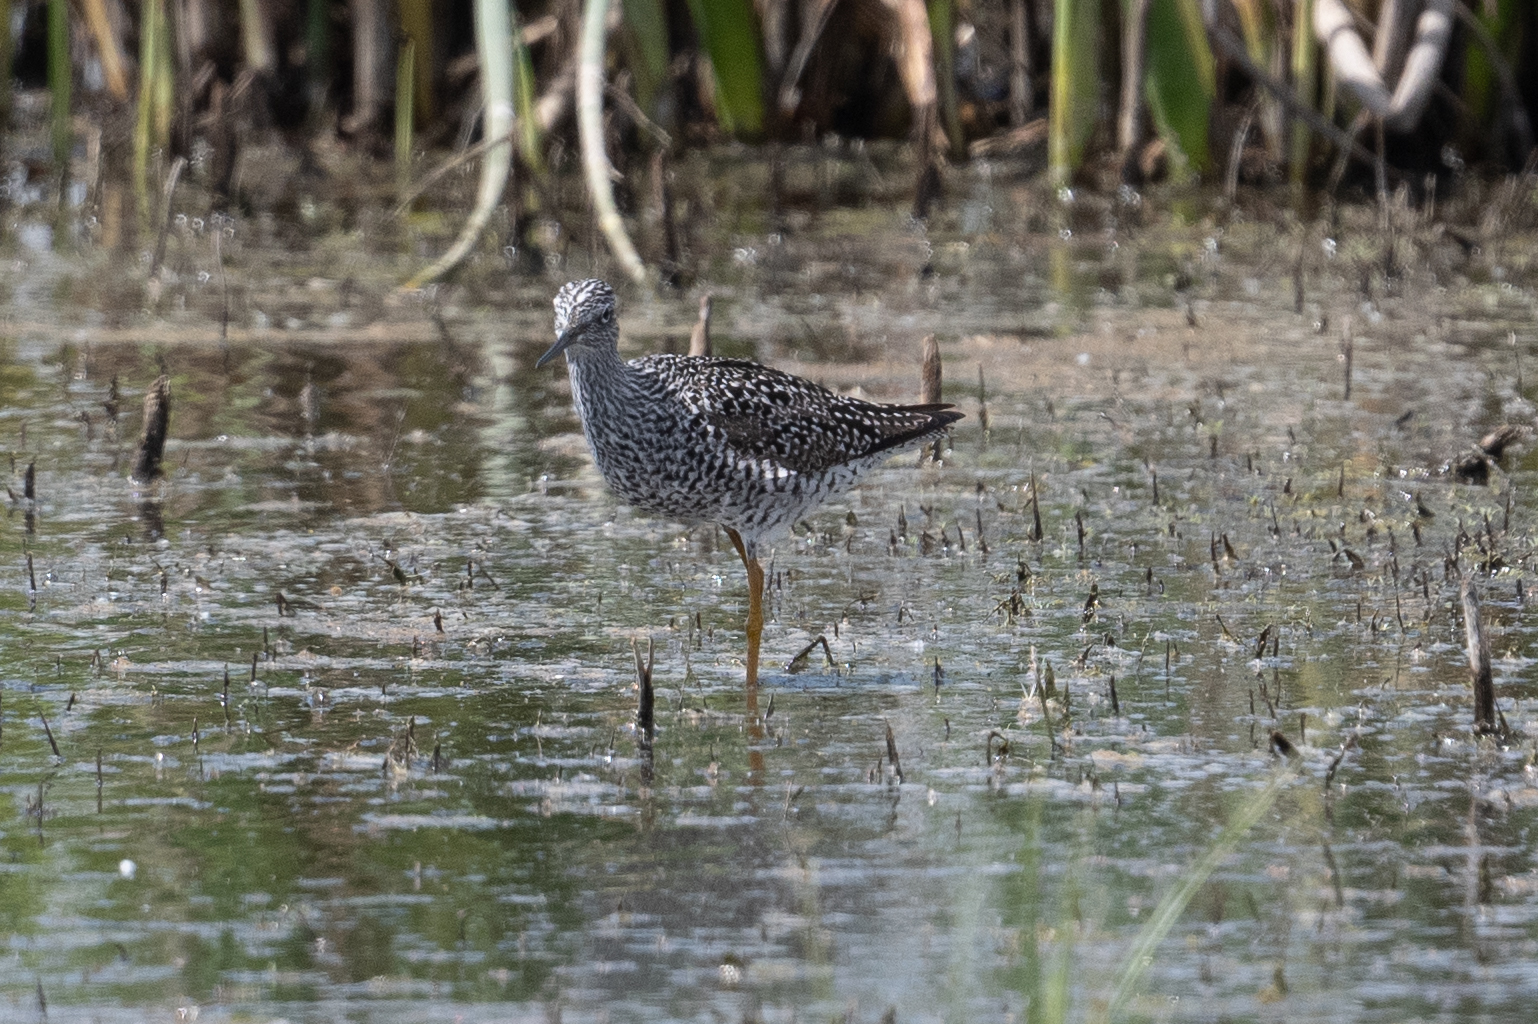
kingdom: Animalia
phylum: Chordata
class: Aves
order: Charadriiformes
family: Scolopacidae
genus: Tringa
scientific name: Tringa melanoleuca
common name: Greater yellowlegs
